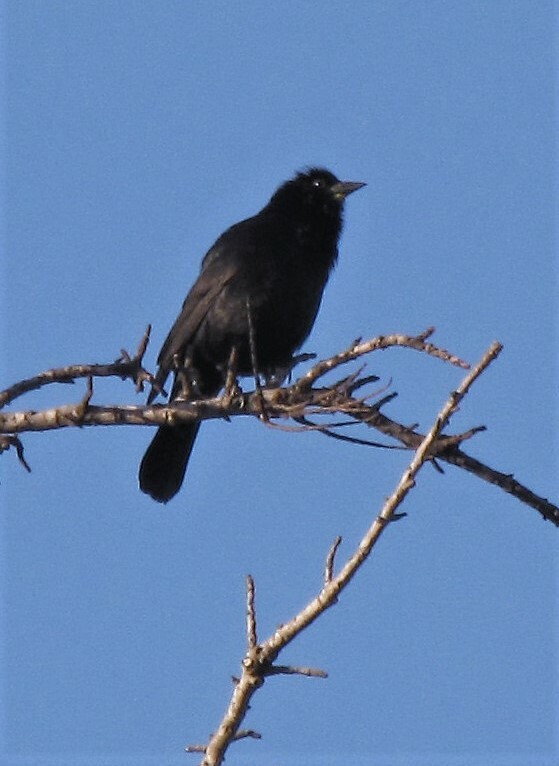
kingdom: Animalia
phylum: Chordata
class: Aves
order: Passeriformes
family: Icteridae
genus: Gnorimopsar
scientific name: Gnorimopsar chopi
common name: Chopi blackbird
